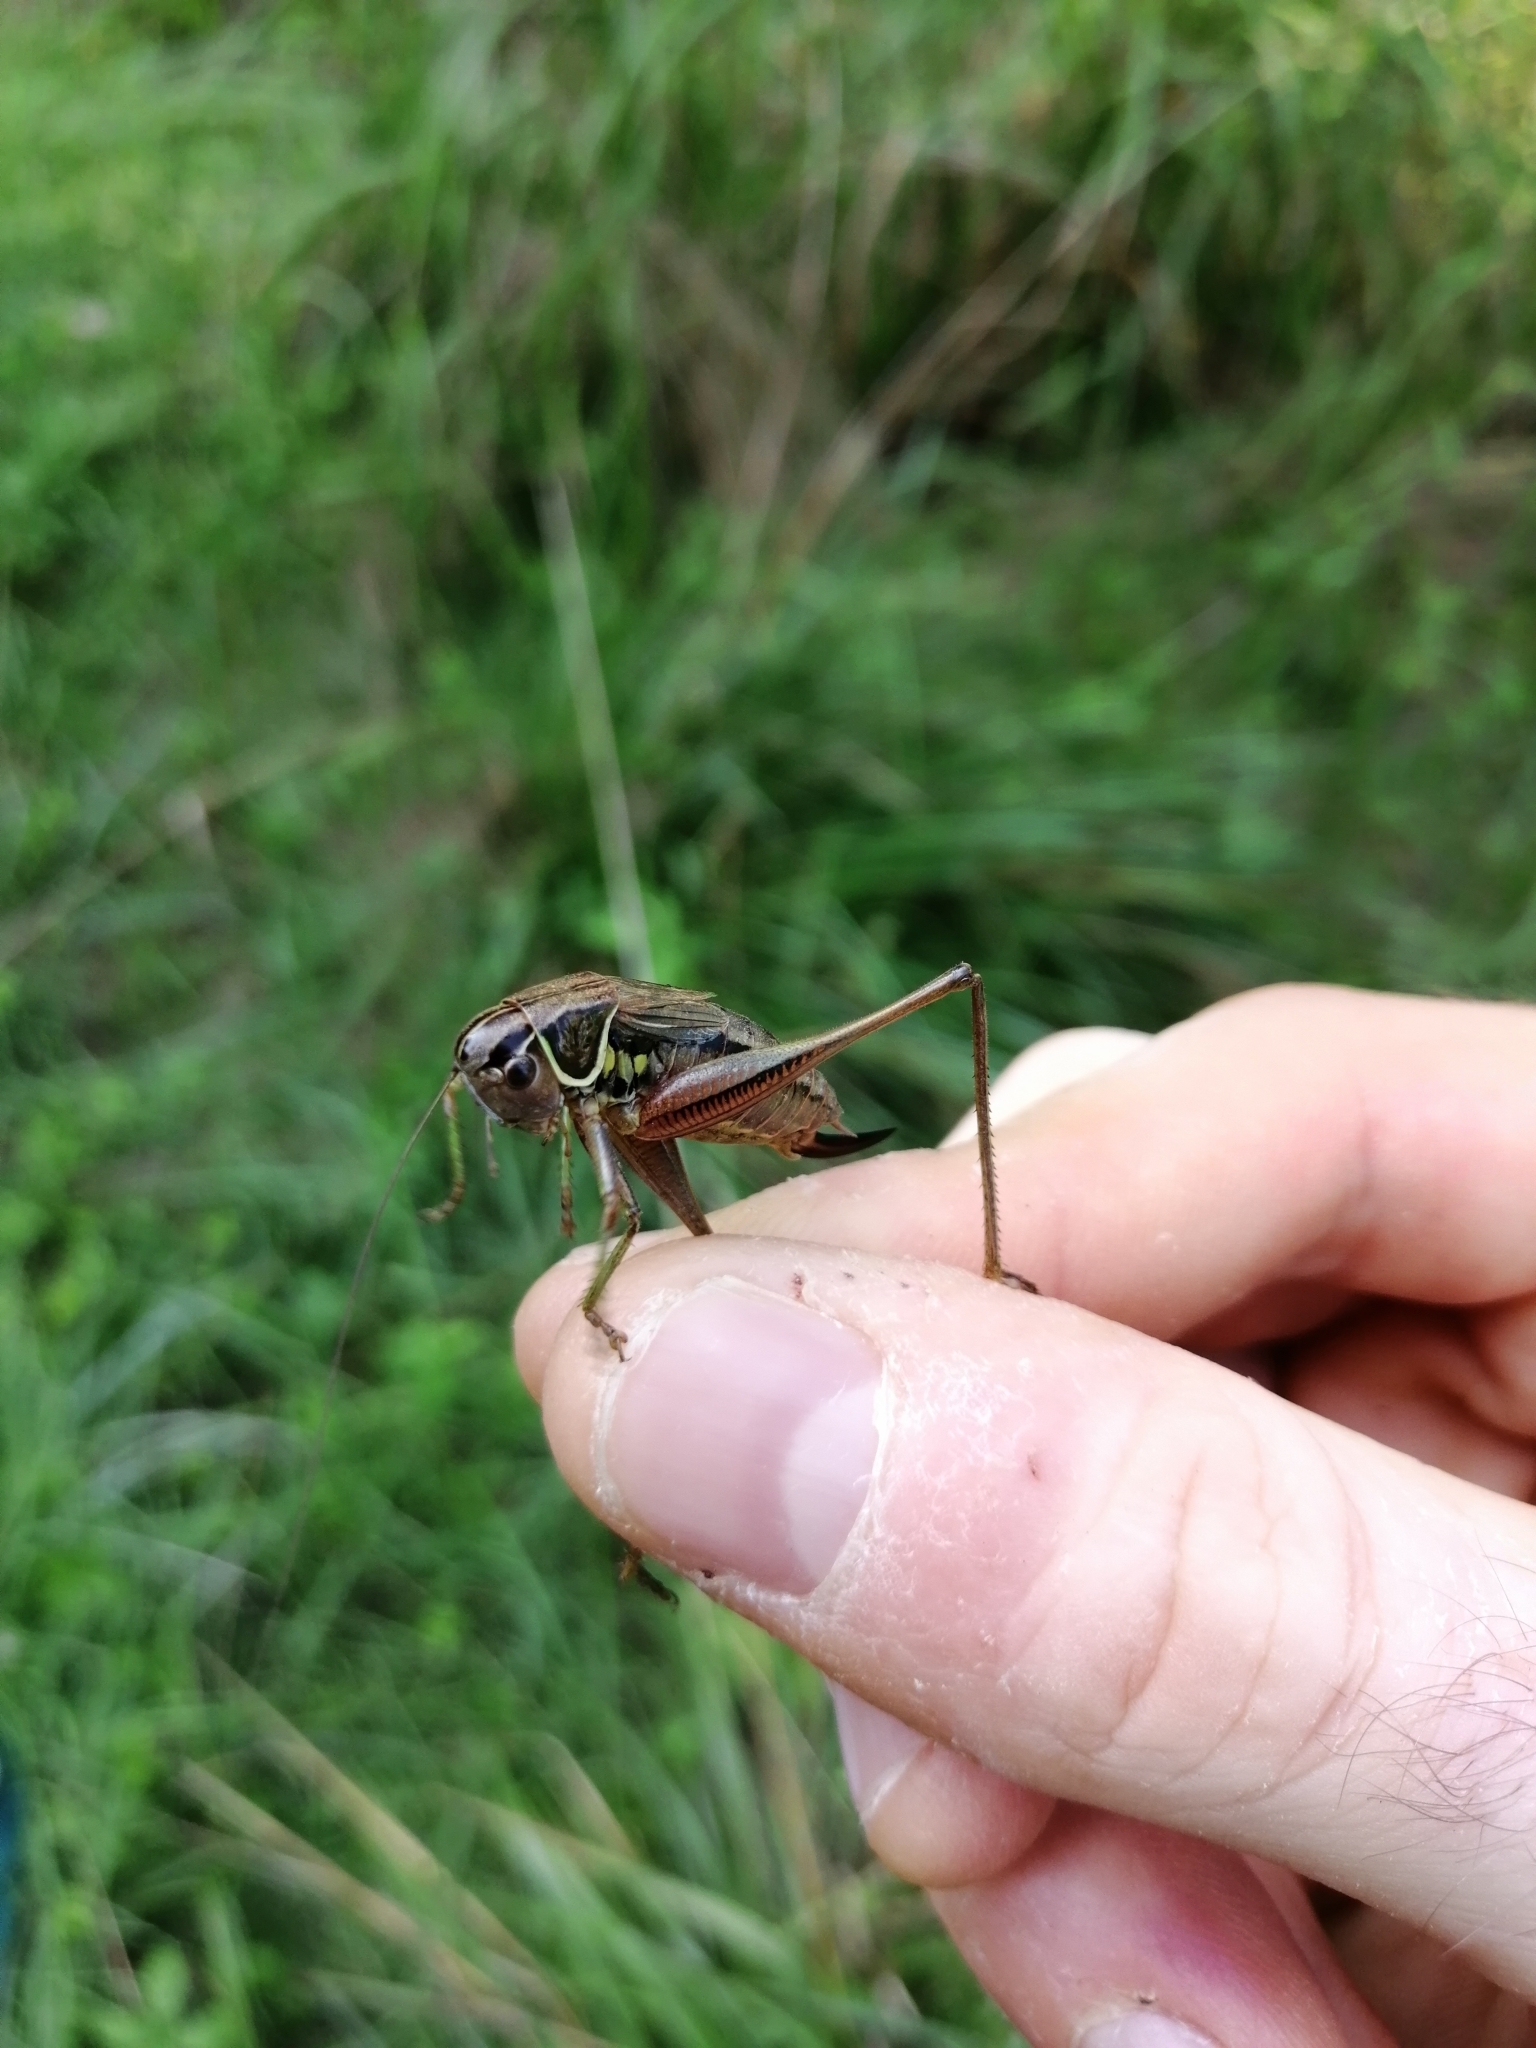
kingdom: Animalia
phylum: Arthropoda
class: Insecta
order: Orthoptera
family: Tettigoniidae
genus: Roeseliana
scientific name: Roeseliana roeselii
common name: Roesel's bush cricket
